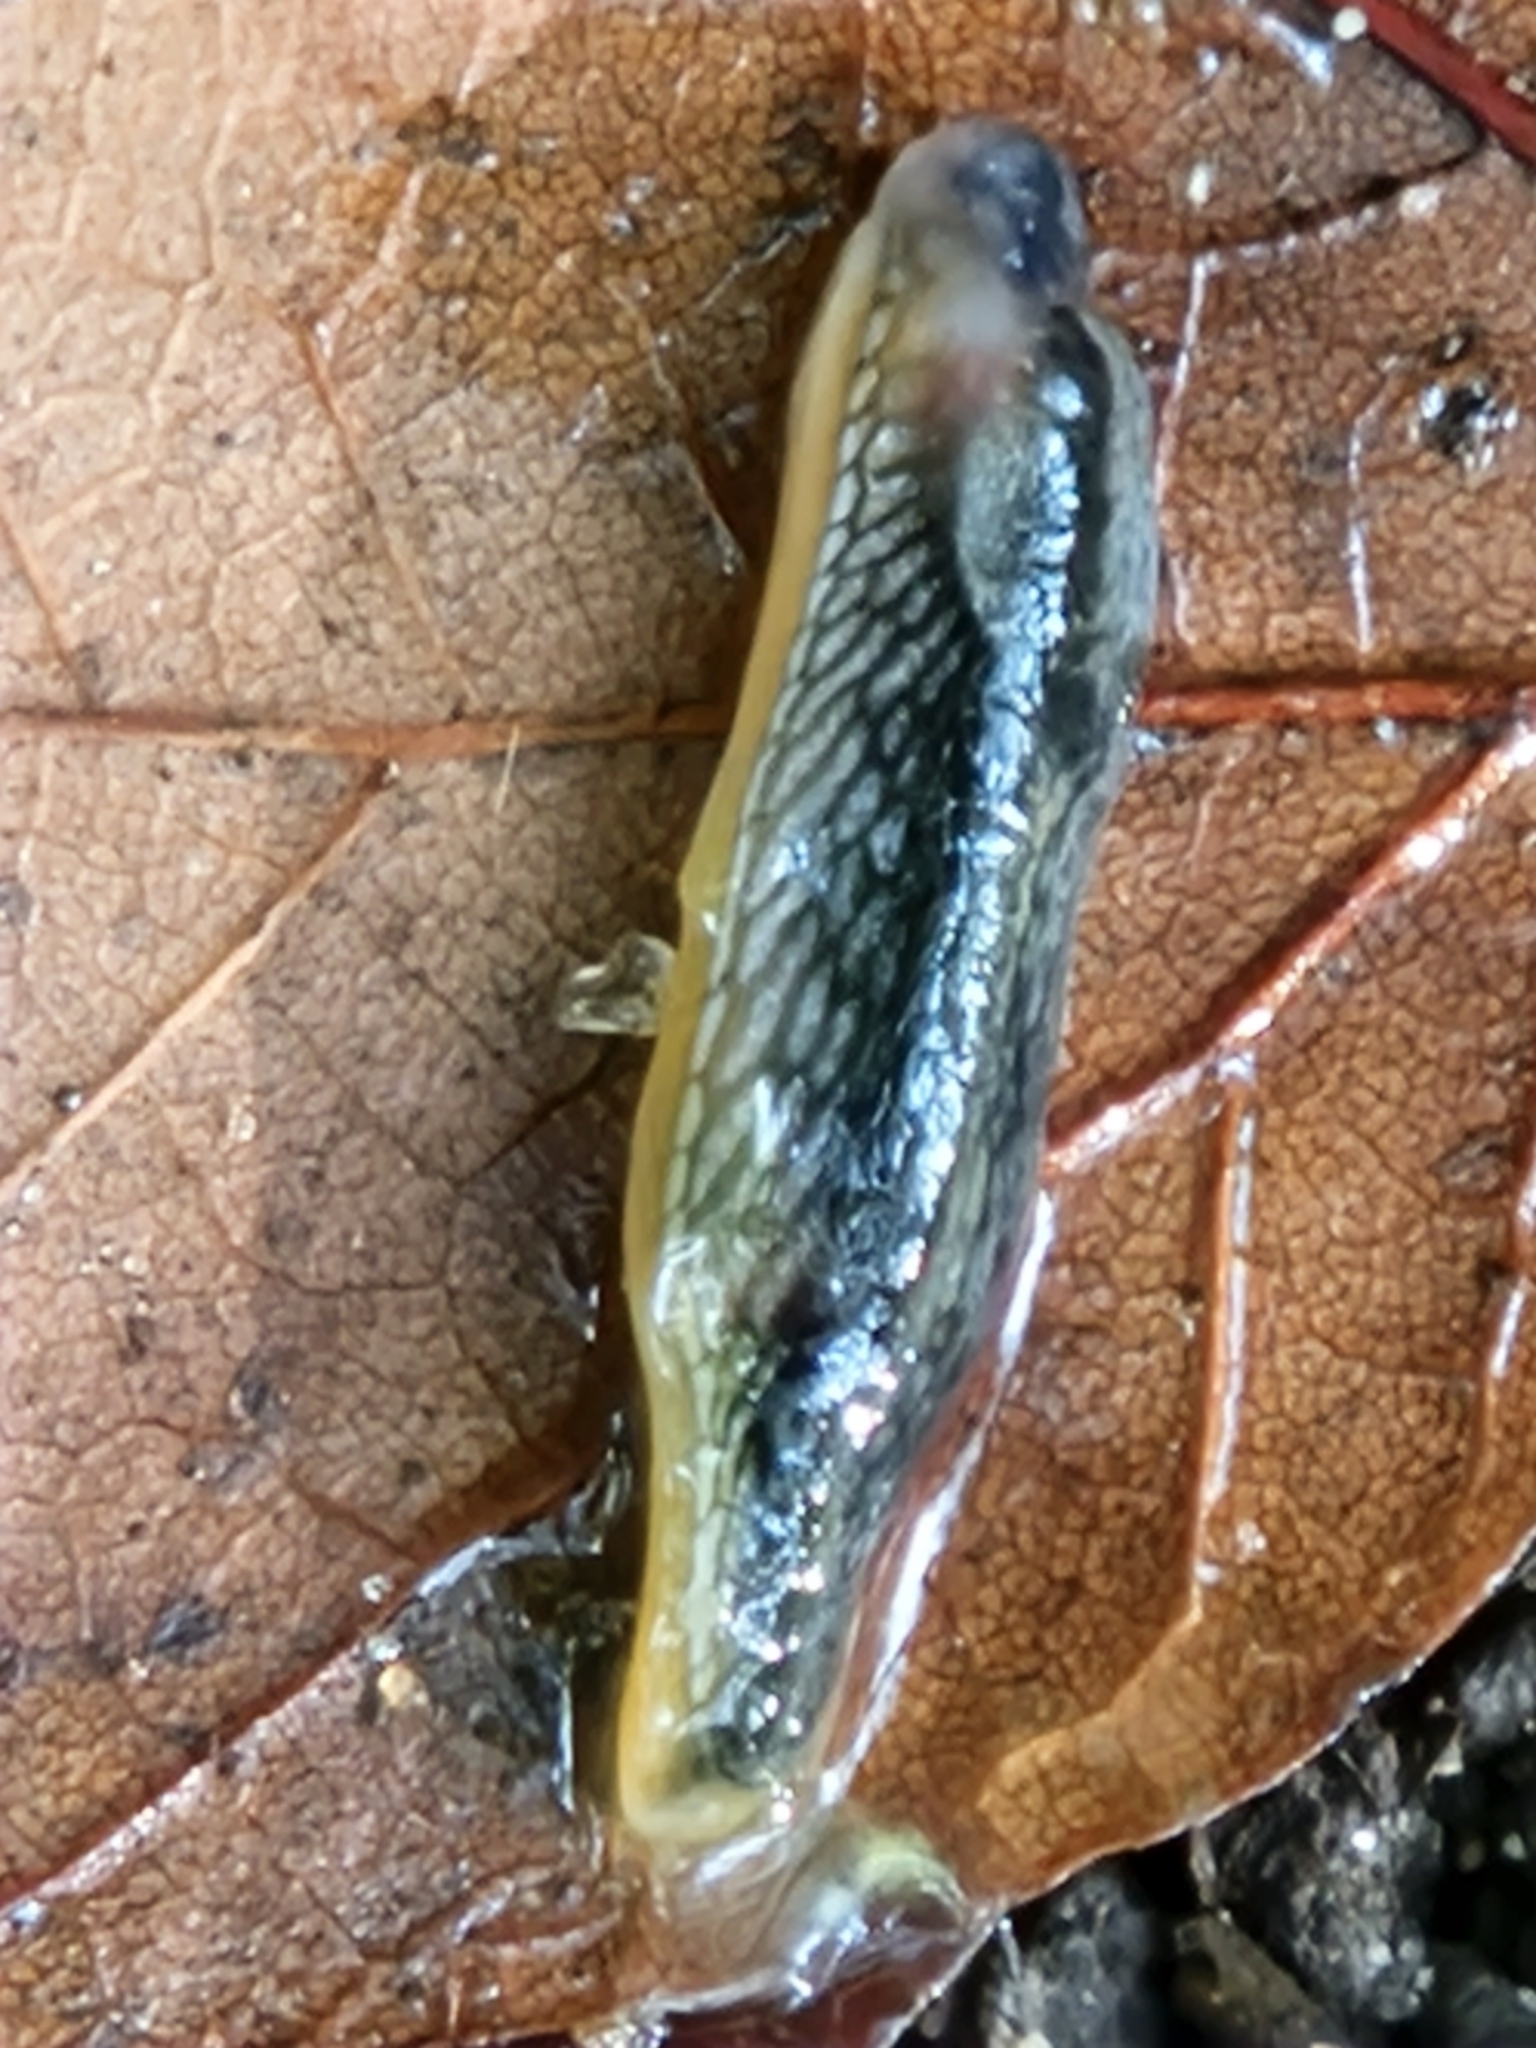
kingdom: Animalia
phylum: Mollusca
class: Gastropoda
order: Stylommatophora
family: Arionidae
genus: Arion
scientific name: Arion hortensis
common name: Garden arion
